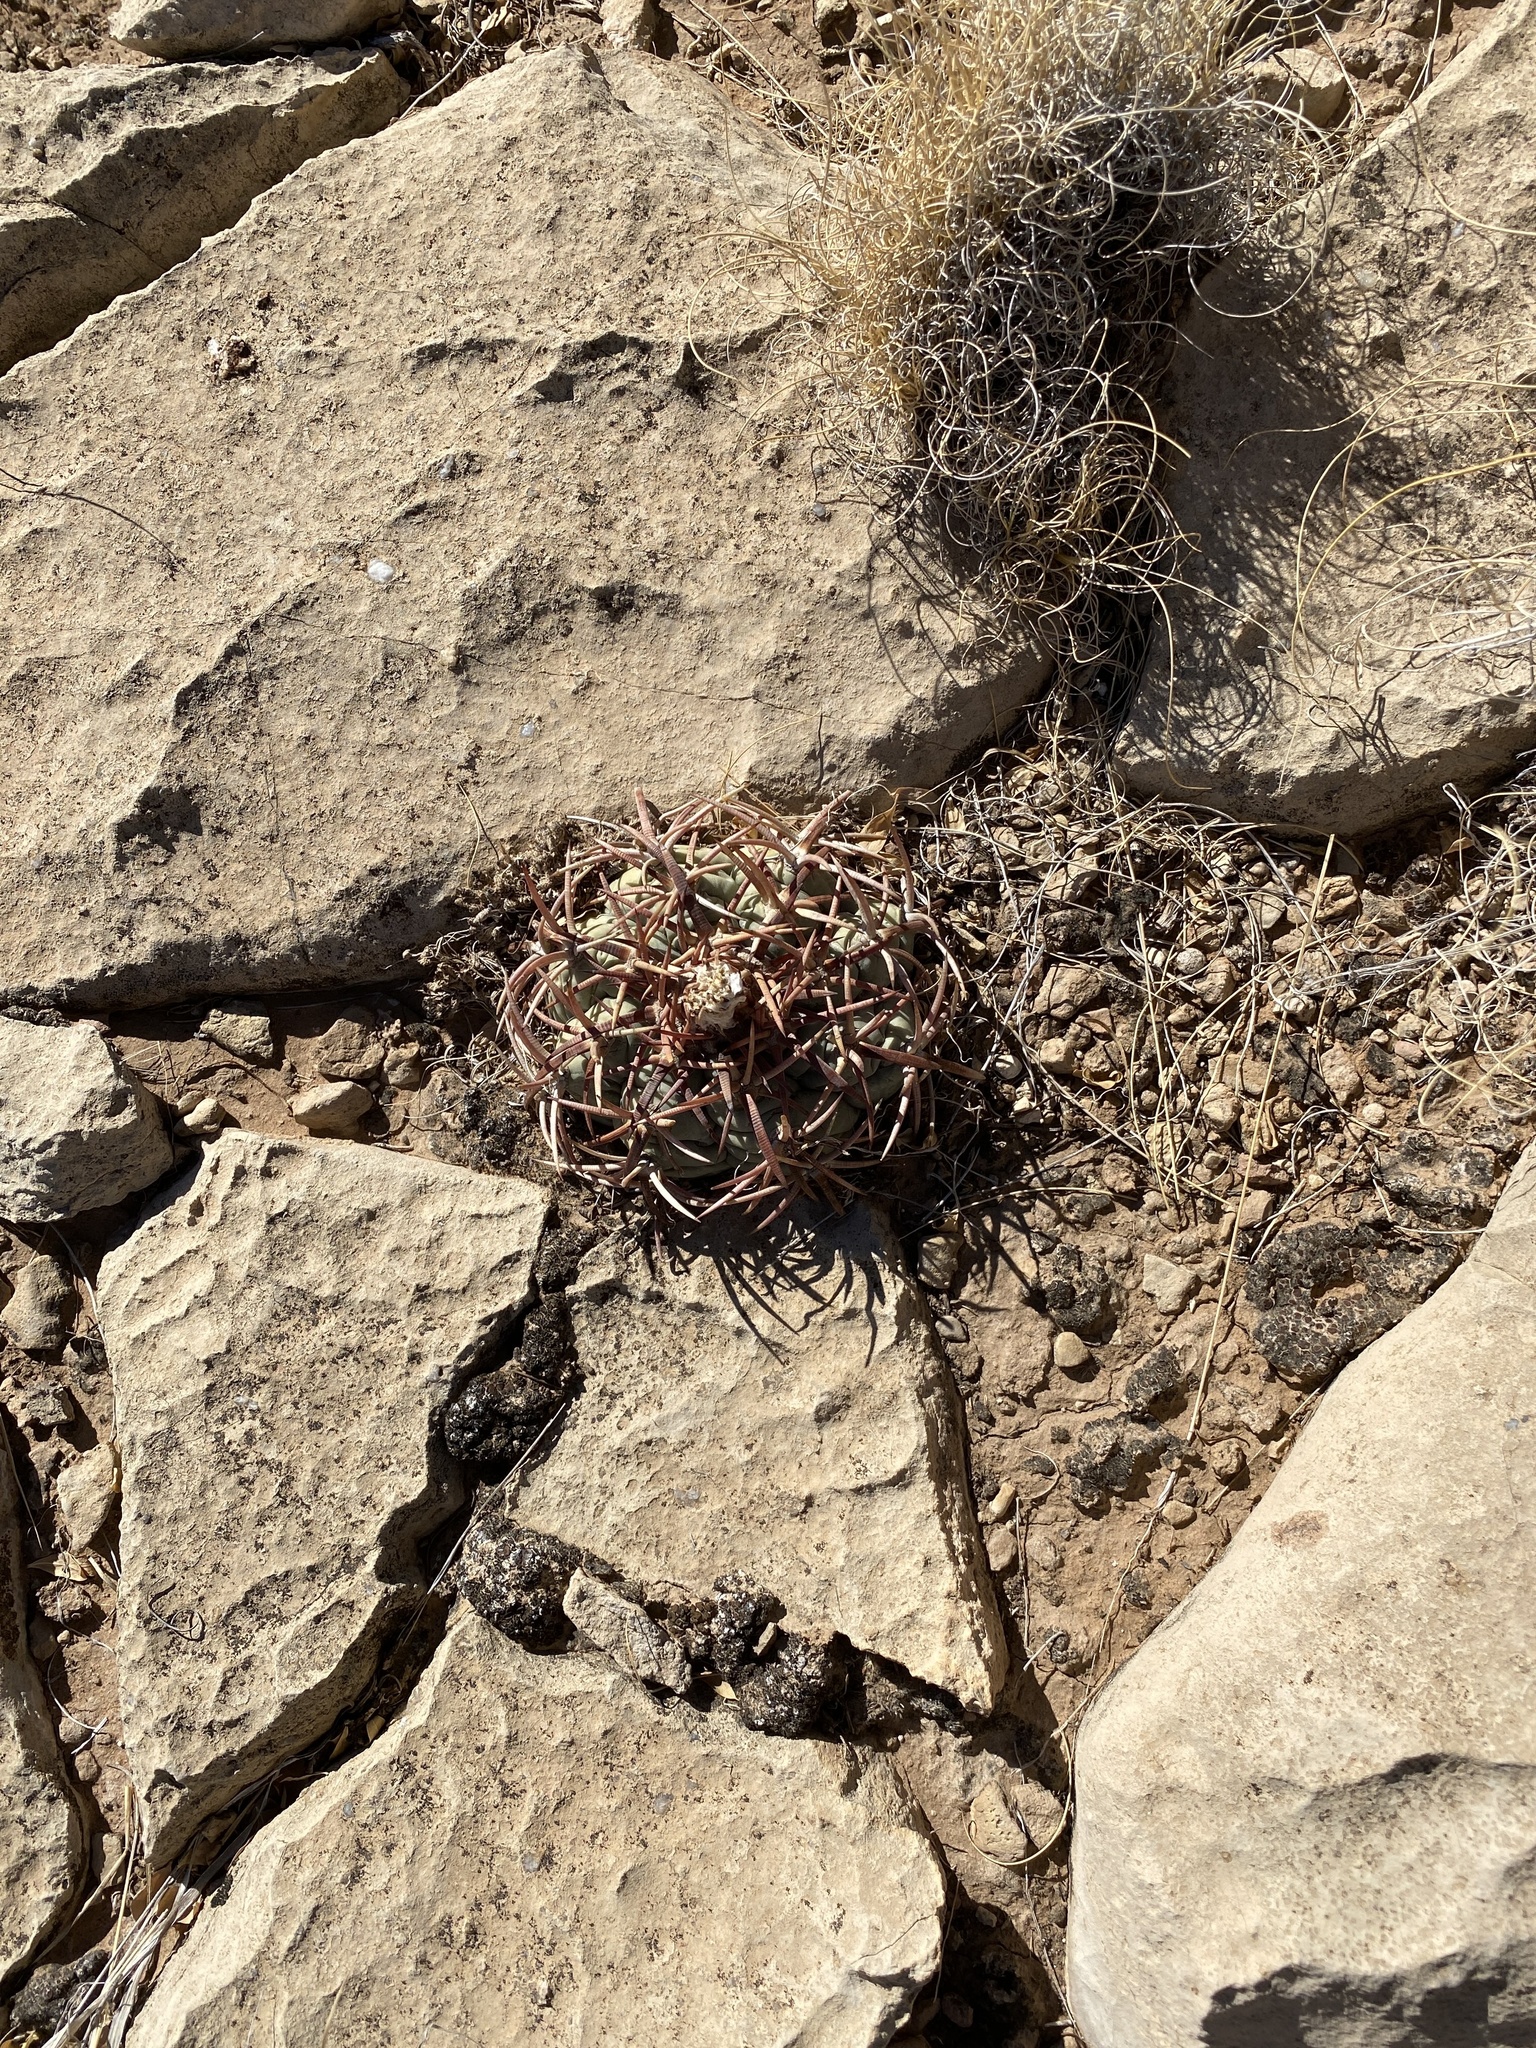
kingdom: Plantae
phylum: Tracheophyta
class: Magnoliopsida
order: Caryophyllales
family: Cactaceae
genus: Echinocactus
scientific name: Echinocactus horizonthalonius
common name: Devilshead
